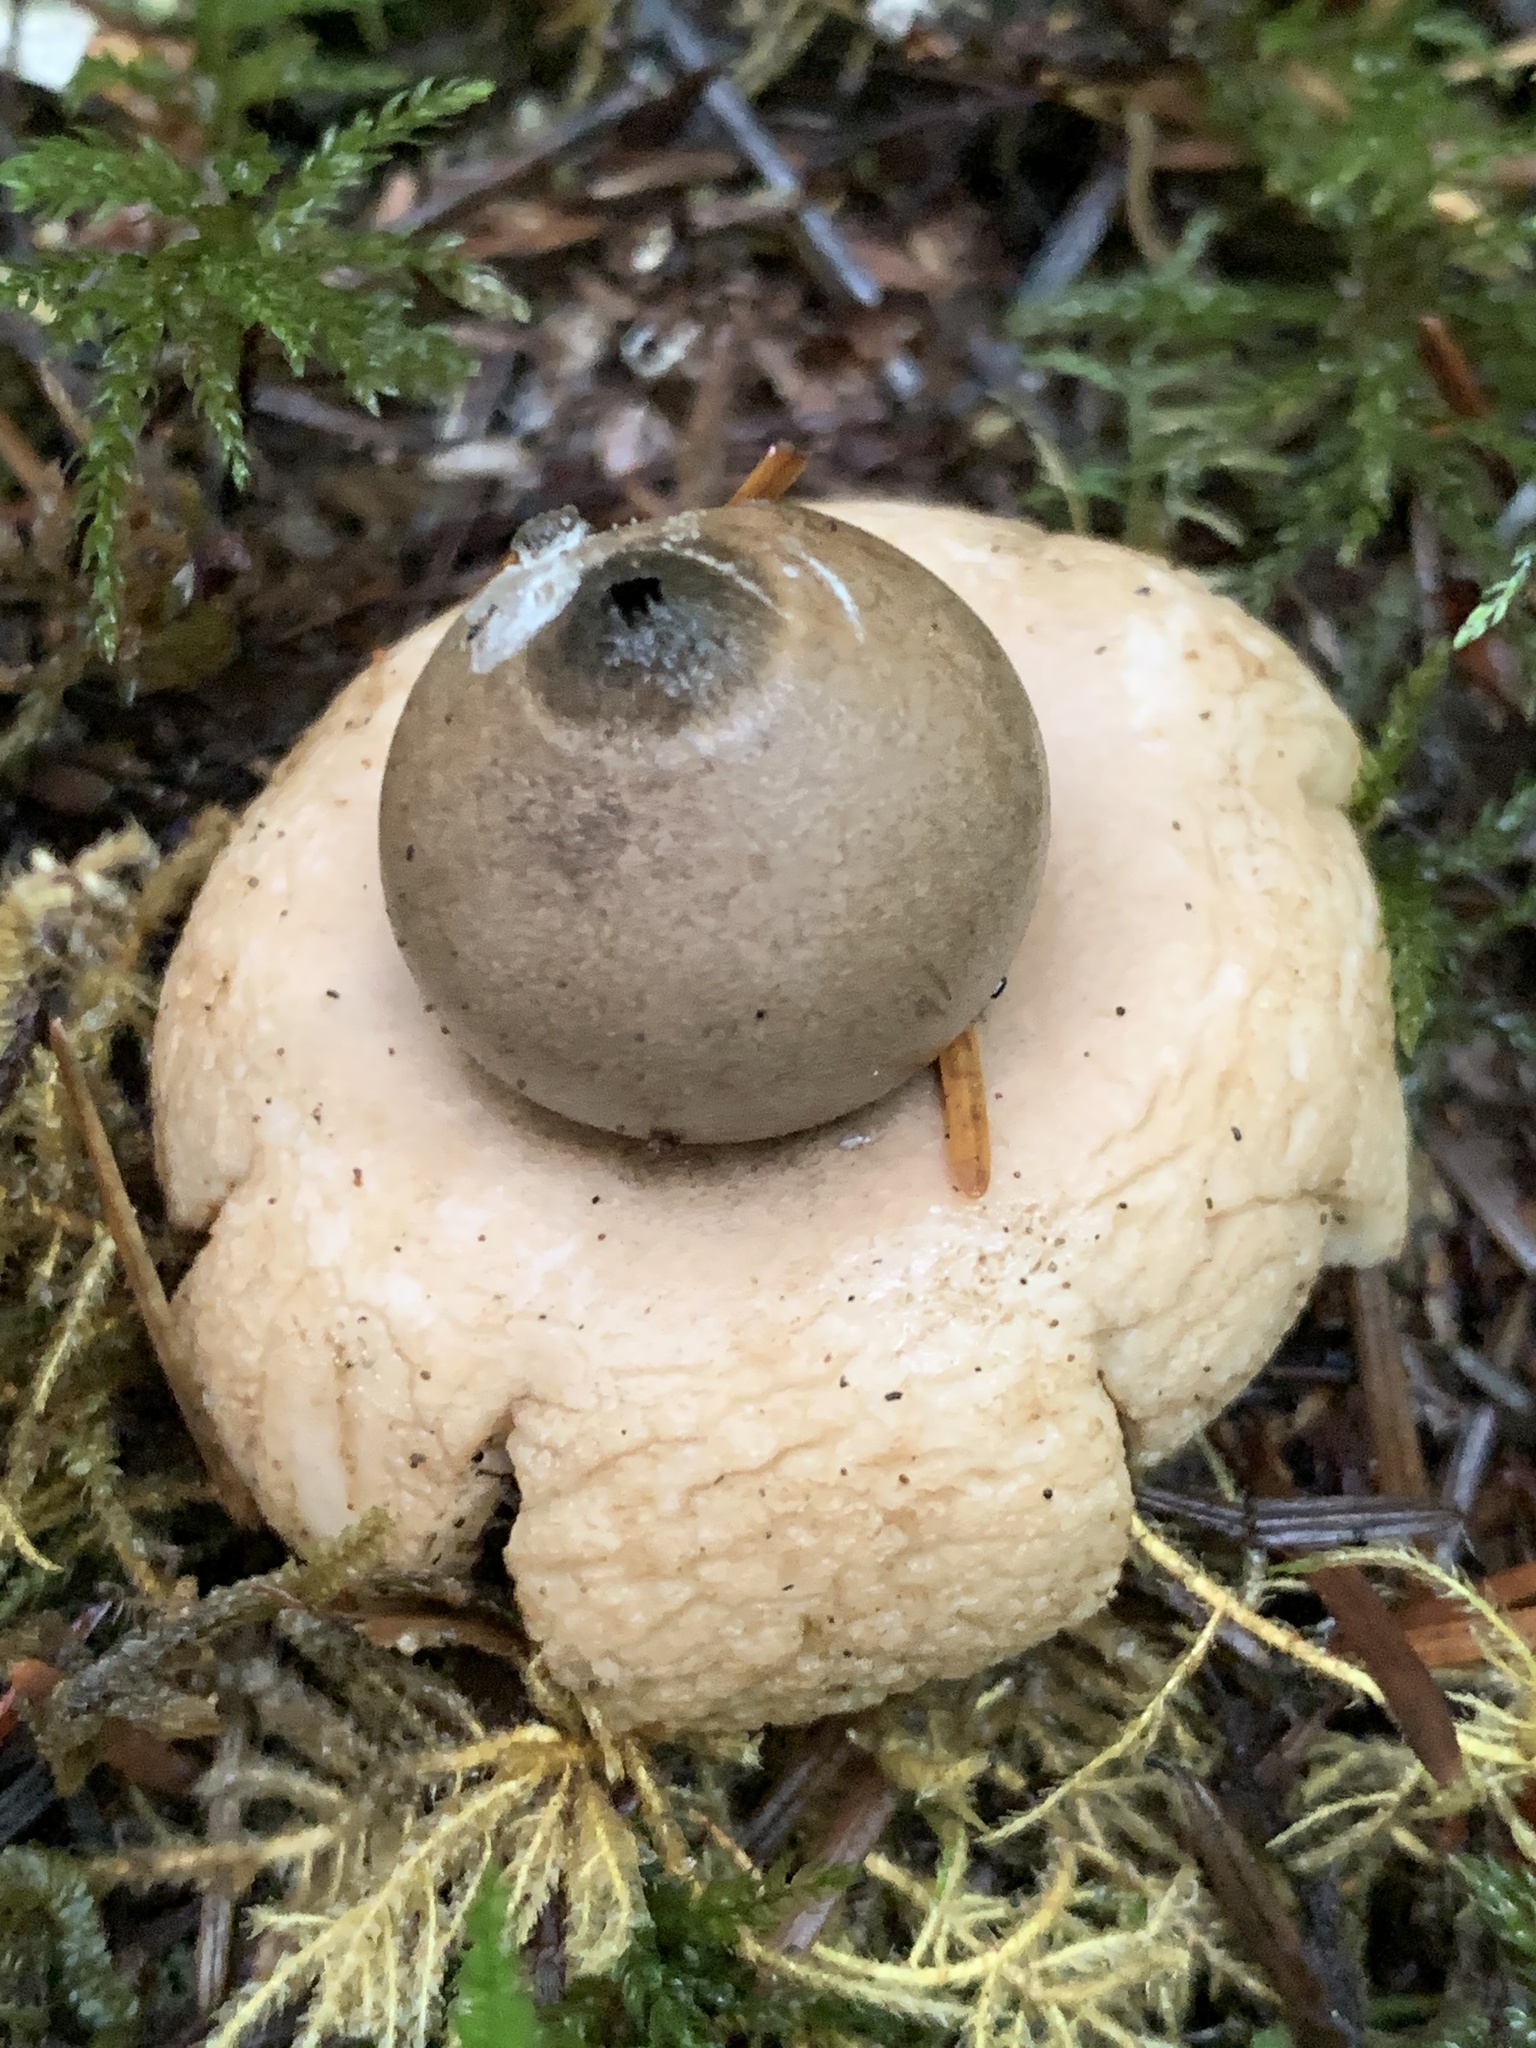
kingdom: Fungi
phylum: Basidiomycota
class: Agaricomycetes
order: Geastrales
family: Geastraceae
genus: Geastrum
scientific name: Geastrum saccatum
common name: Rounded earthstar
